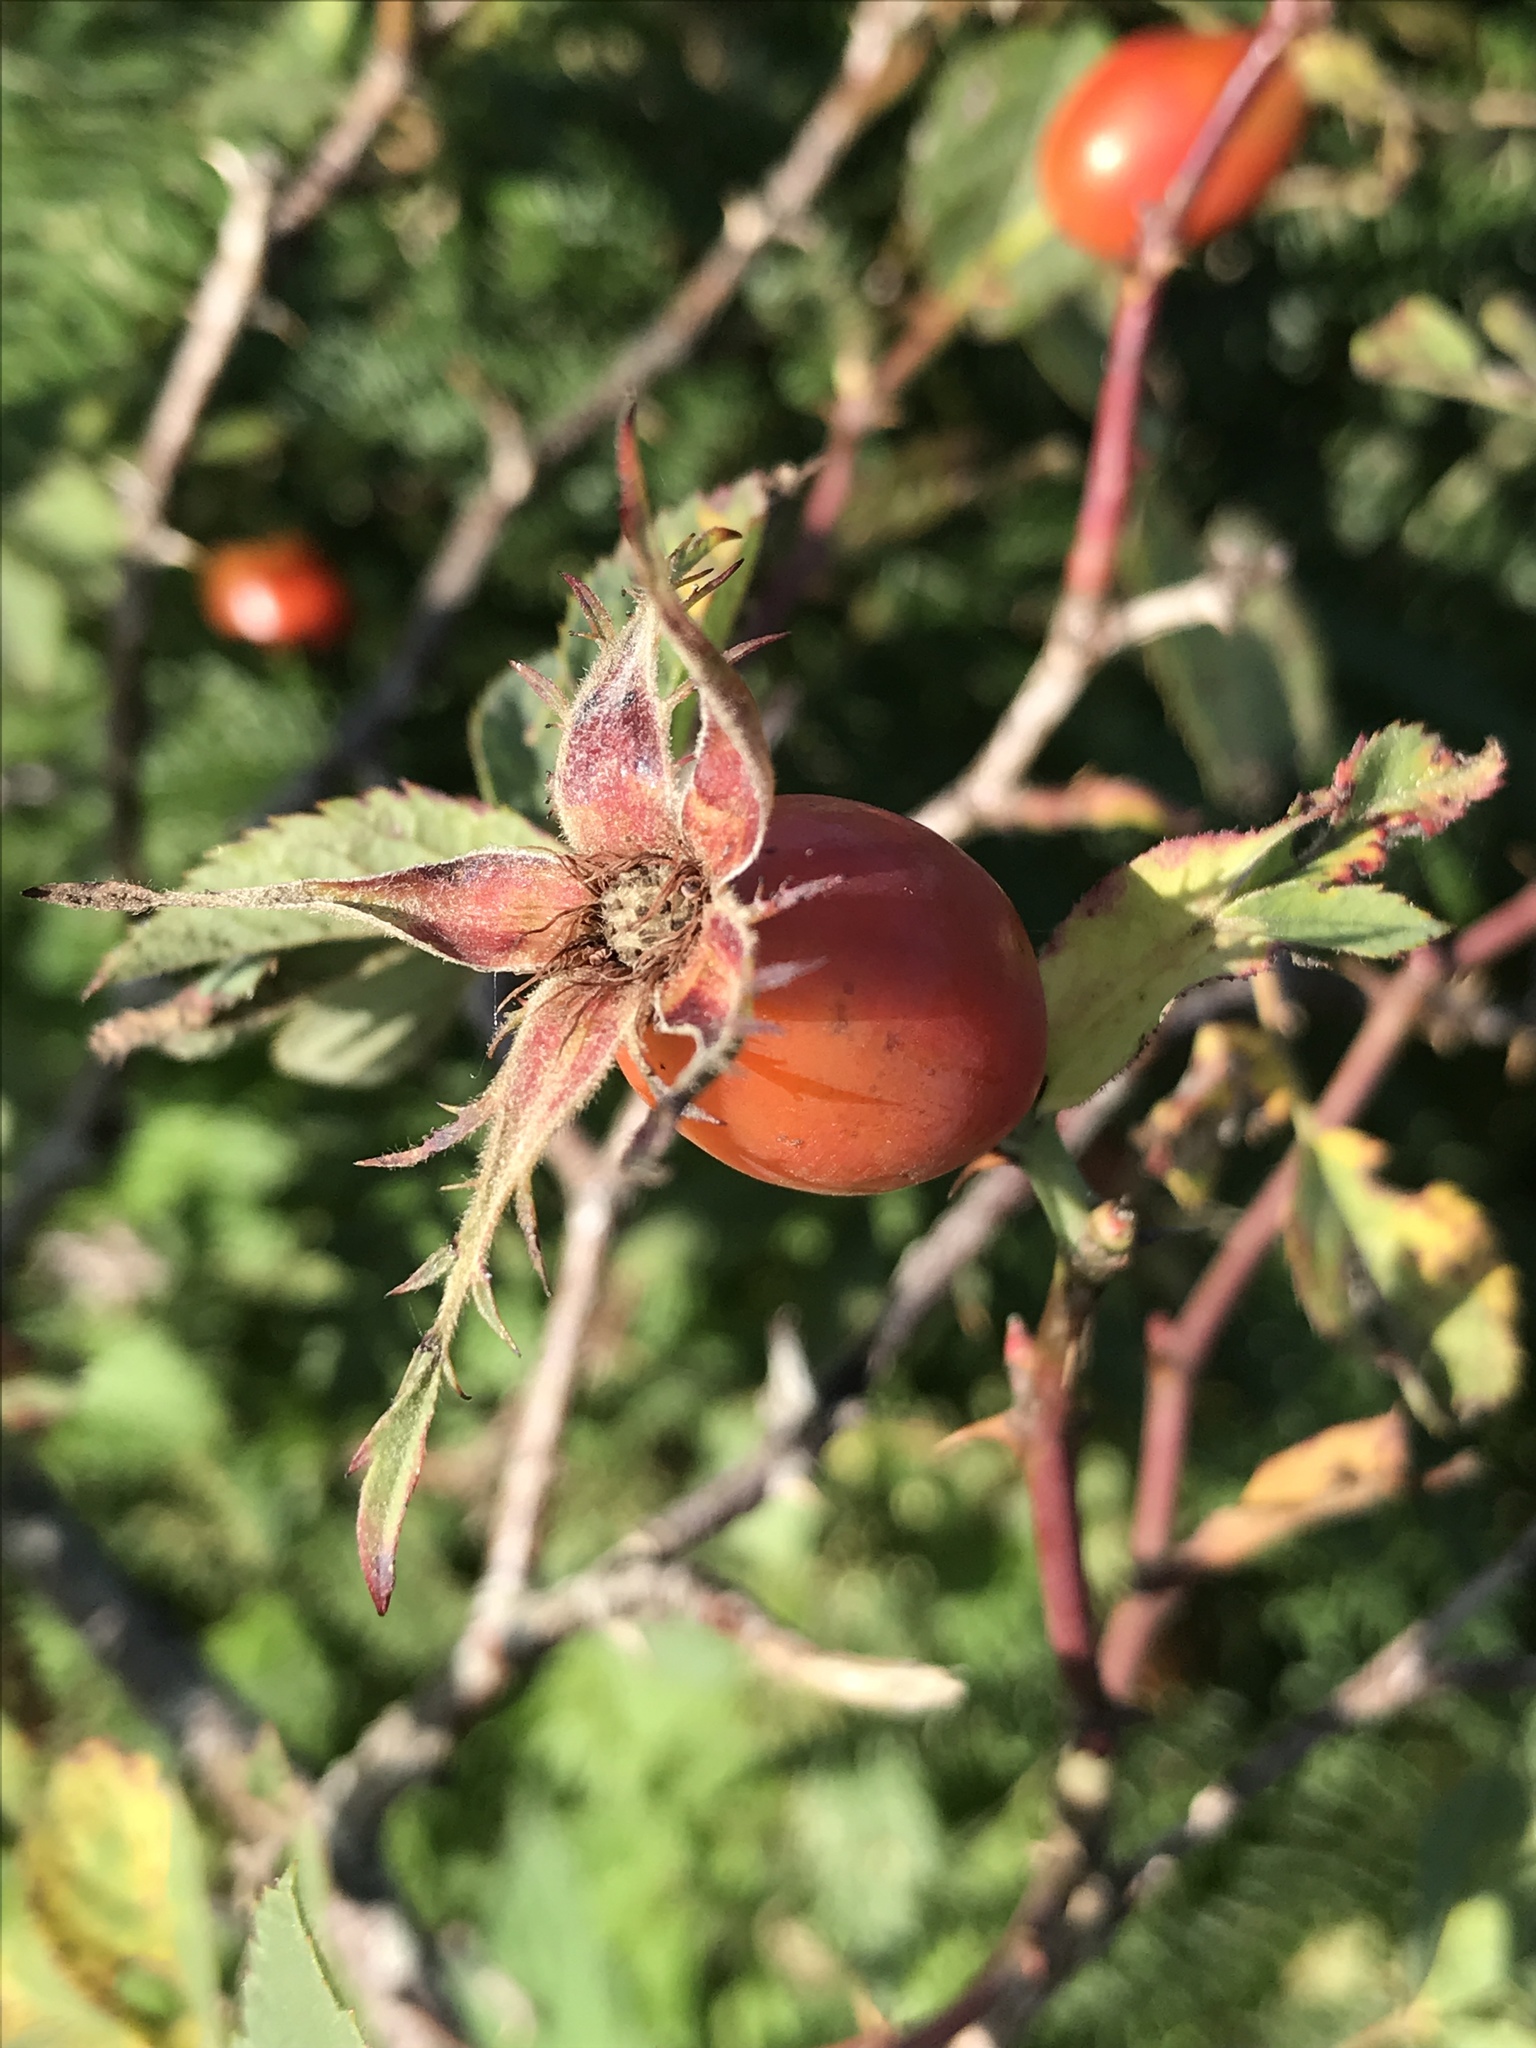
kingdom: Plantae
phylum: Tracheophyta
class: Magnoliopsida
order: Rosales
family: Rosaceae
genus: Rosa
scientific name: Rosa dumalis
